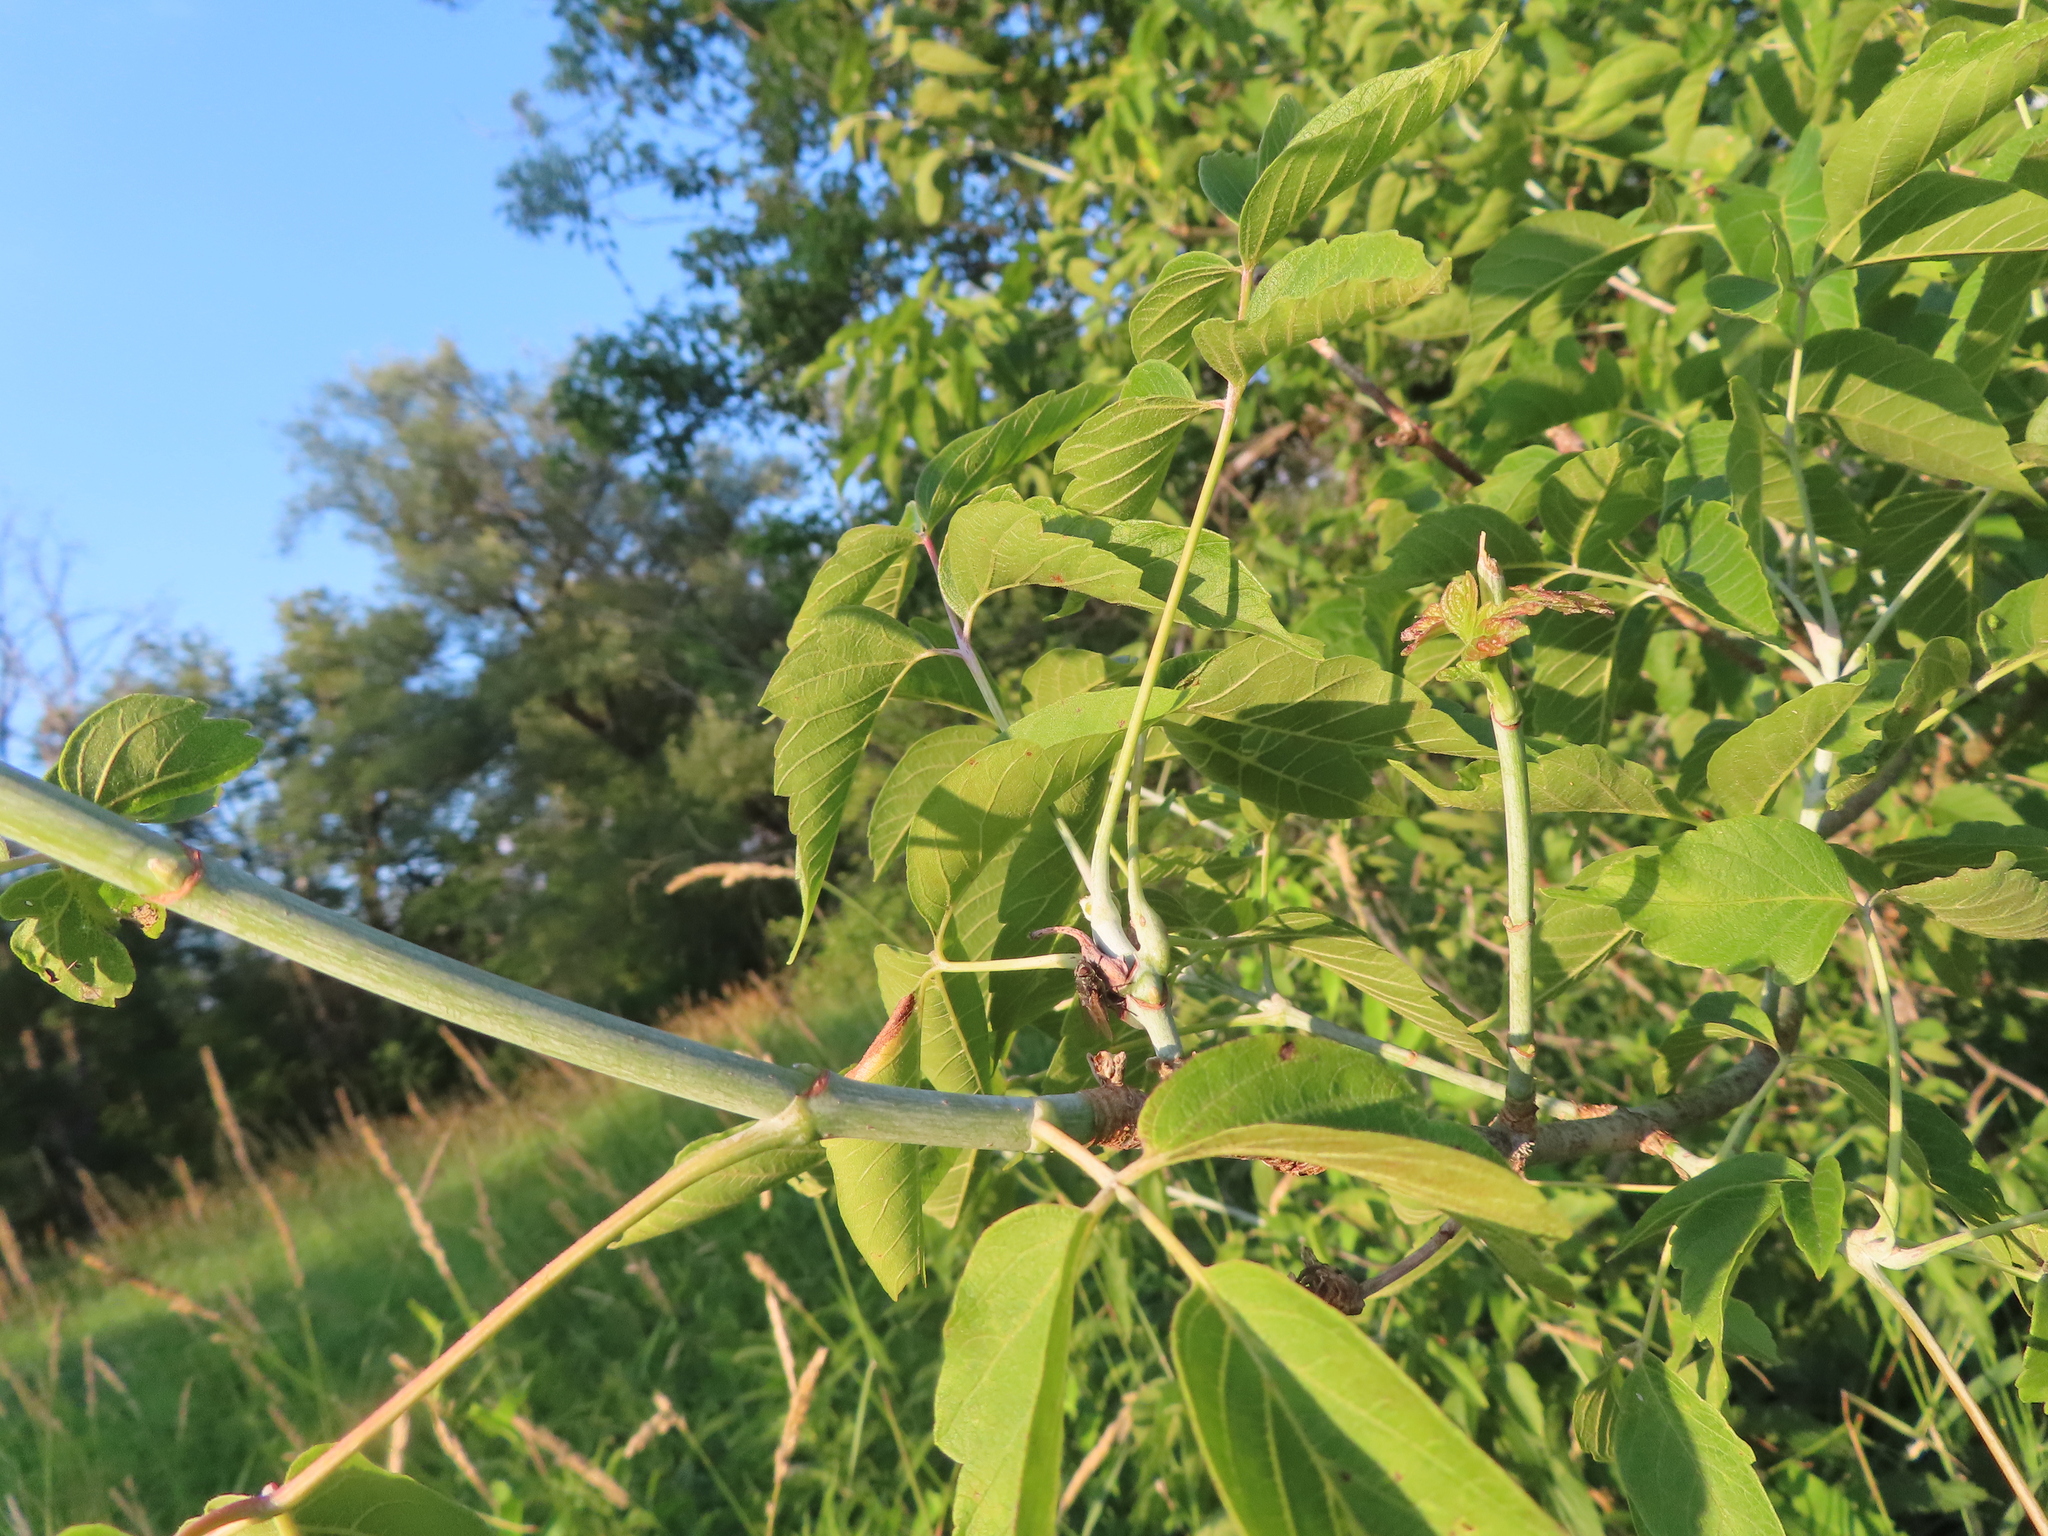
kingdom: Plantae
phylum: Tracheophyta
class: Magnoliopsida
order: Sapindales
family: Sapindaceae
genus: Acer
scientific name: Acer negundo
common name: Ashleaf maple
